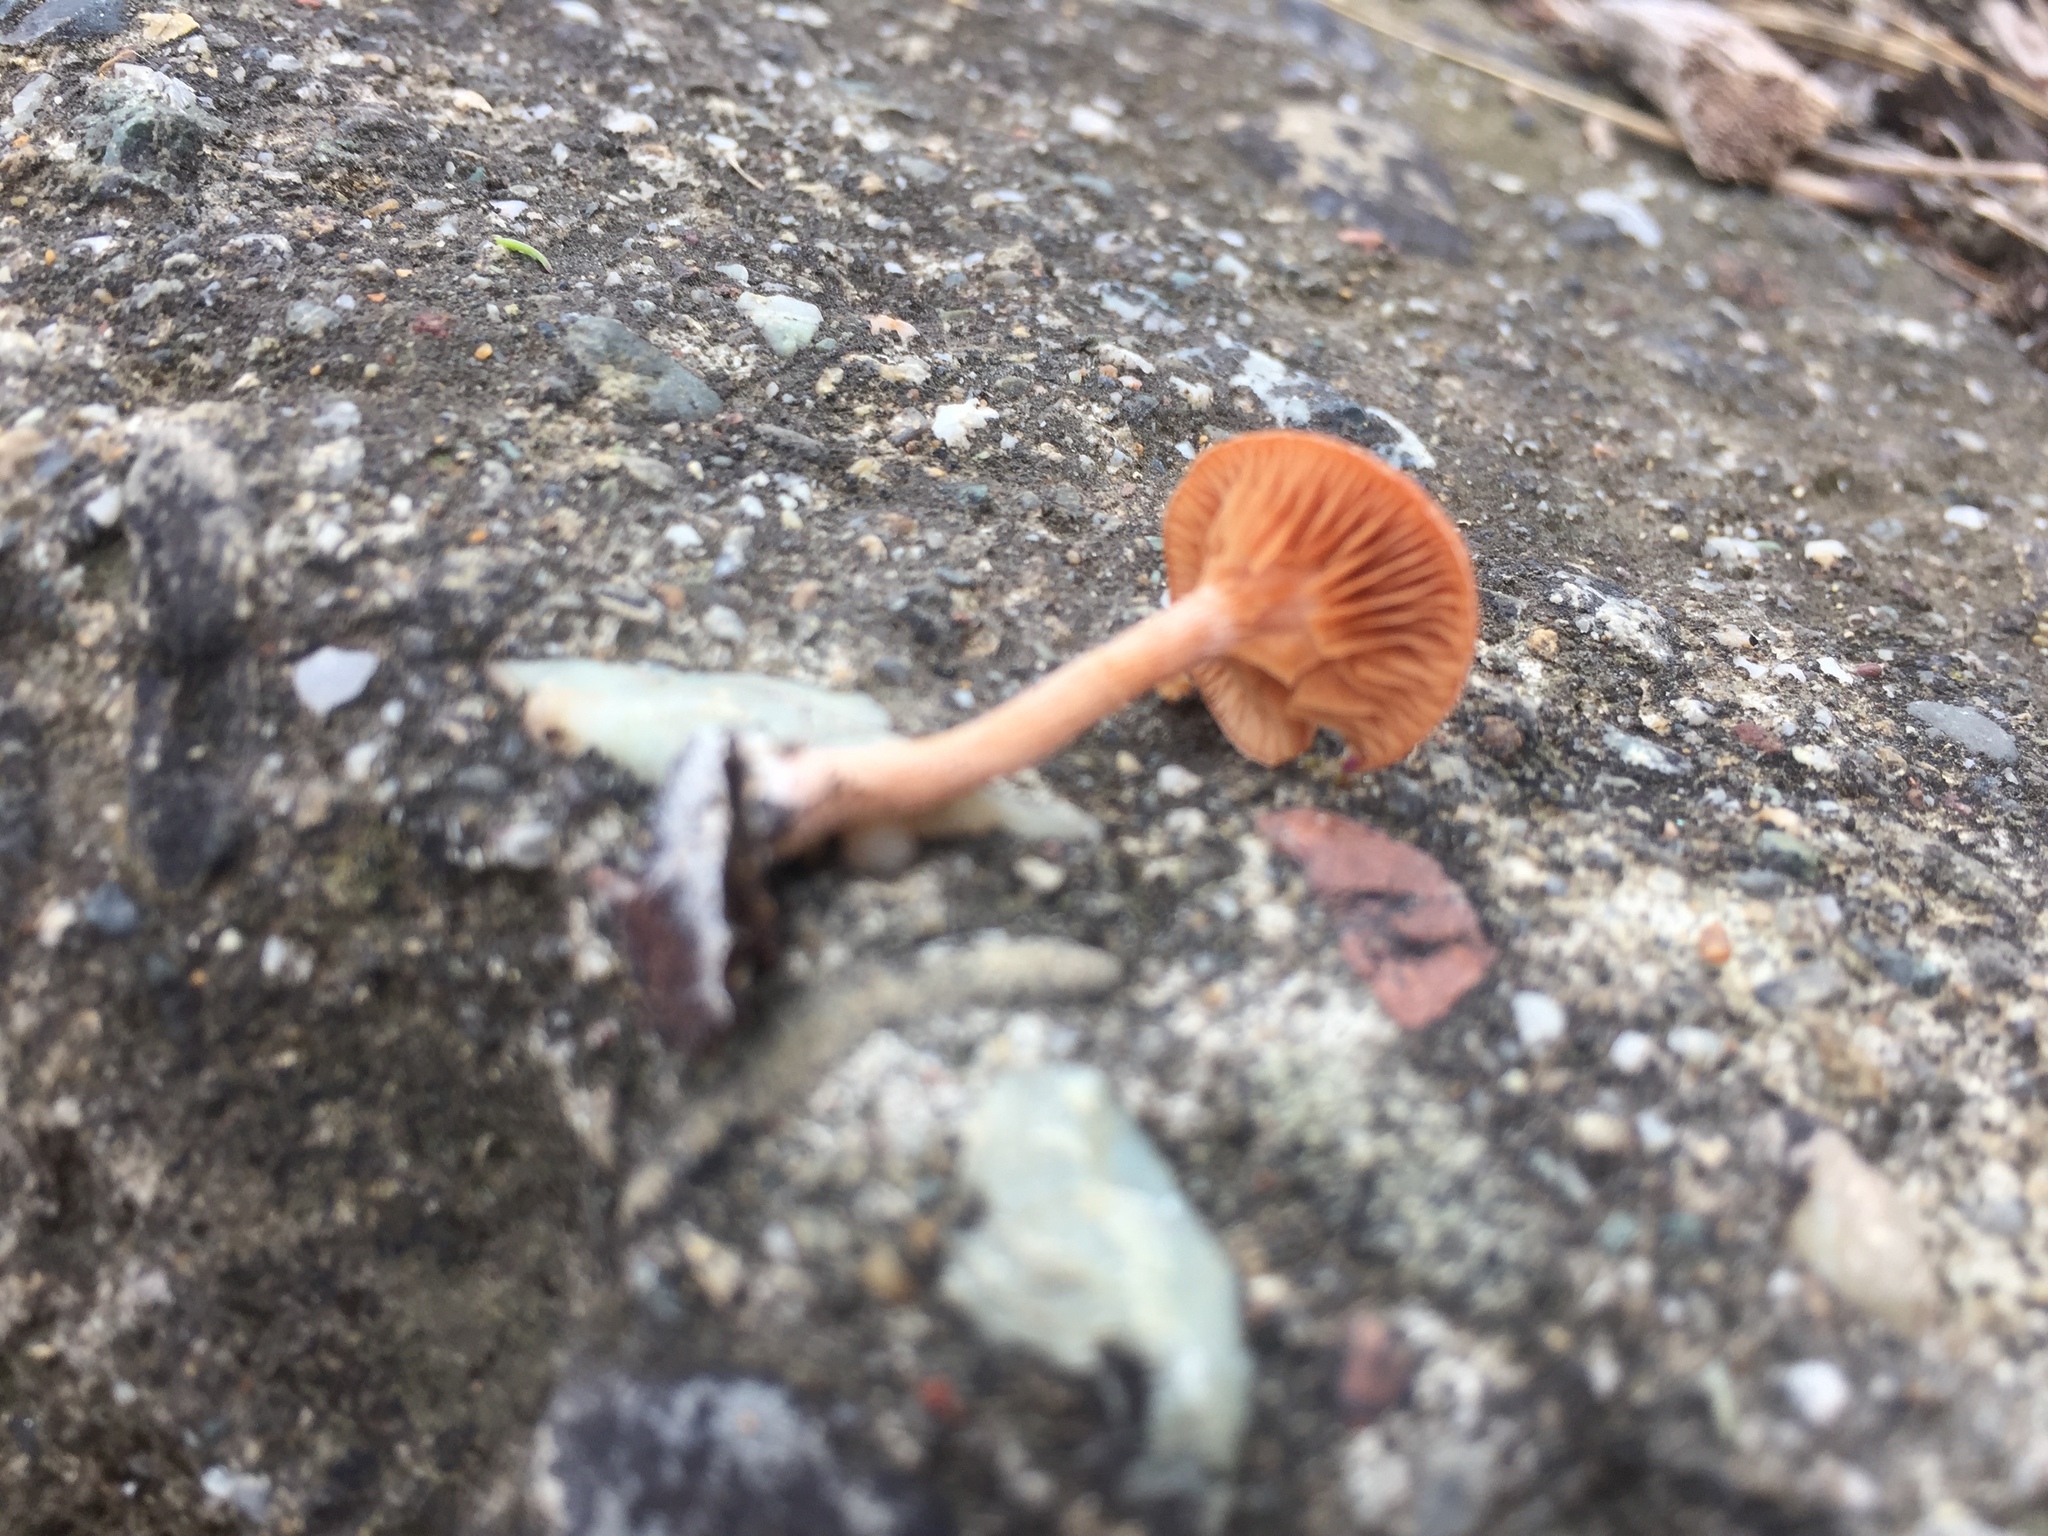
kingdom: Fungi
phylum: Basidiomycota
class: Agaricomycetes
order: Agaricales
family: Tubariaceae
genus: Tubaria
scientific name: Tubaria furfuracea
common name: Scurfy twiglet
